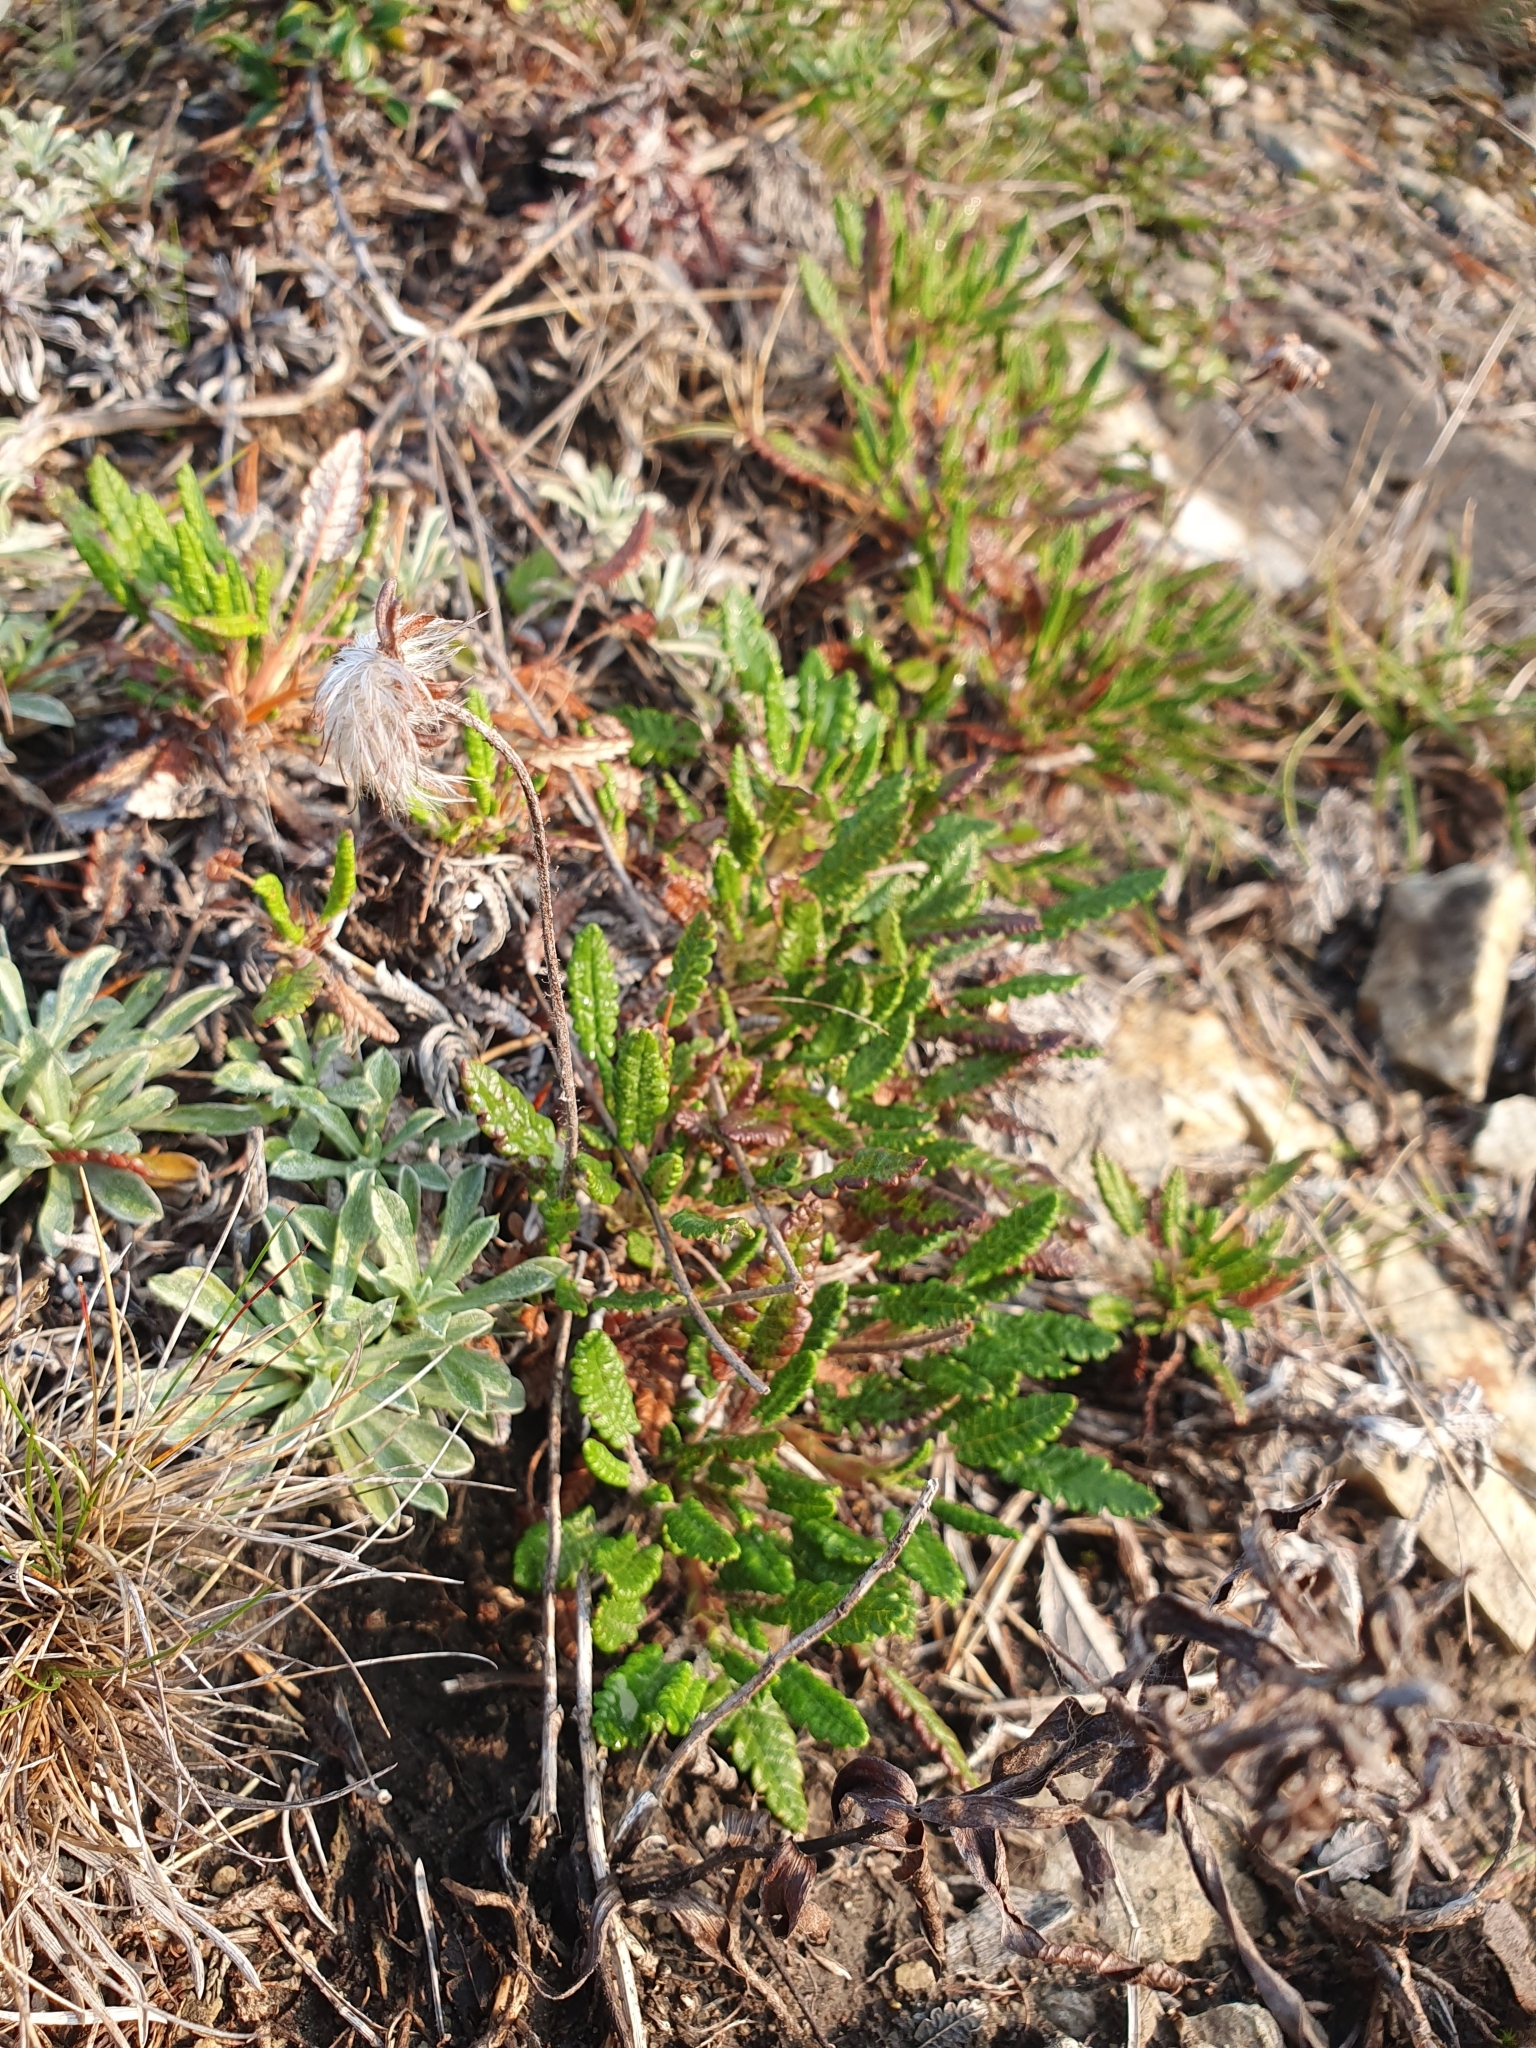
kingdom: Plantae
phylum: Tracheophyta
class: Magnoliopsida
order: Rosales
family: Rosaceae
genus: Dryas
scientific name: Dryas octopetala
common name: Eight-petal mountain-avens
